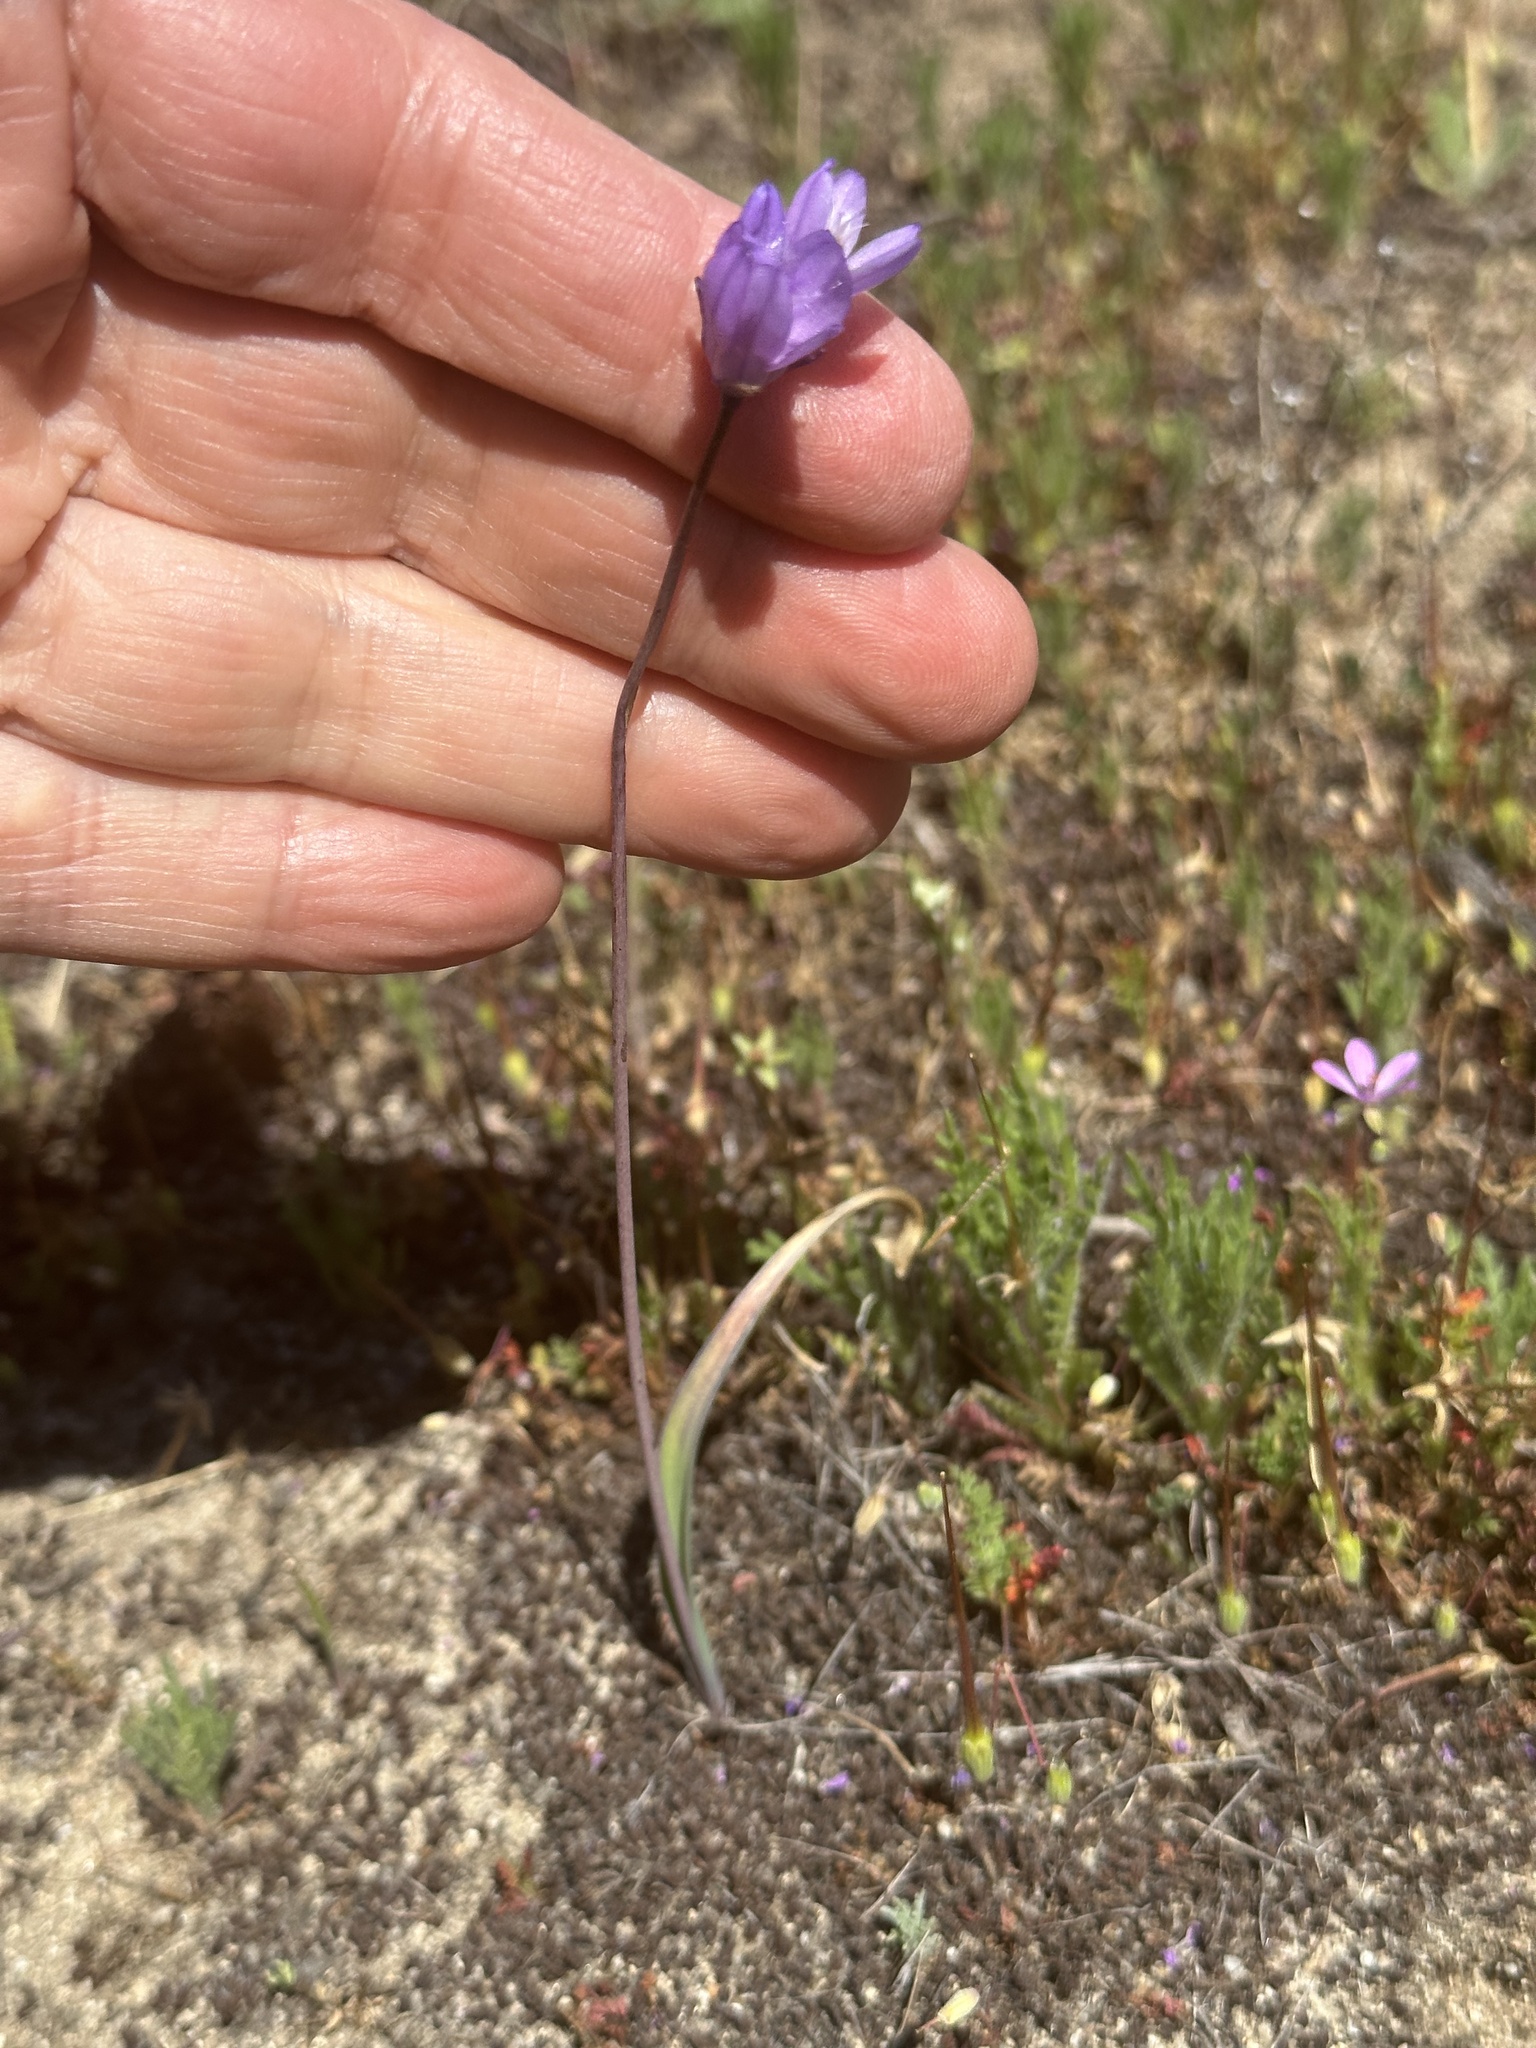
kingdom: Plantae
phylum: Tracheophyta
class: Liliopsida
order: Asparagales
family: Asparagaceae
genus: Dipterostemon
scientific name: Dipterostemon capitatus
